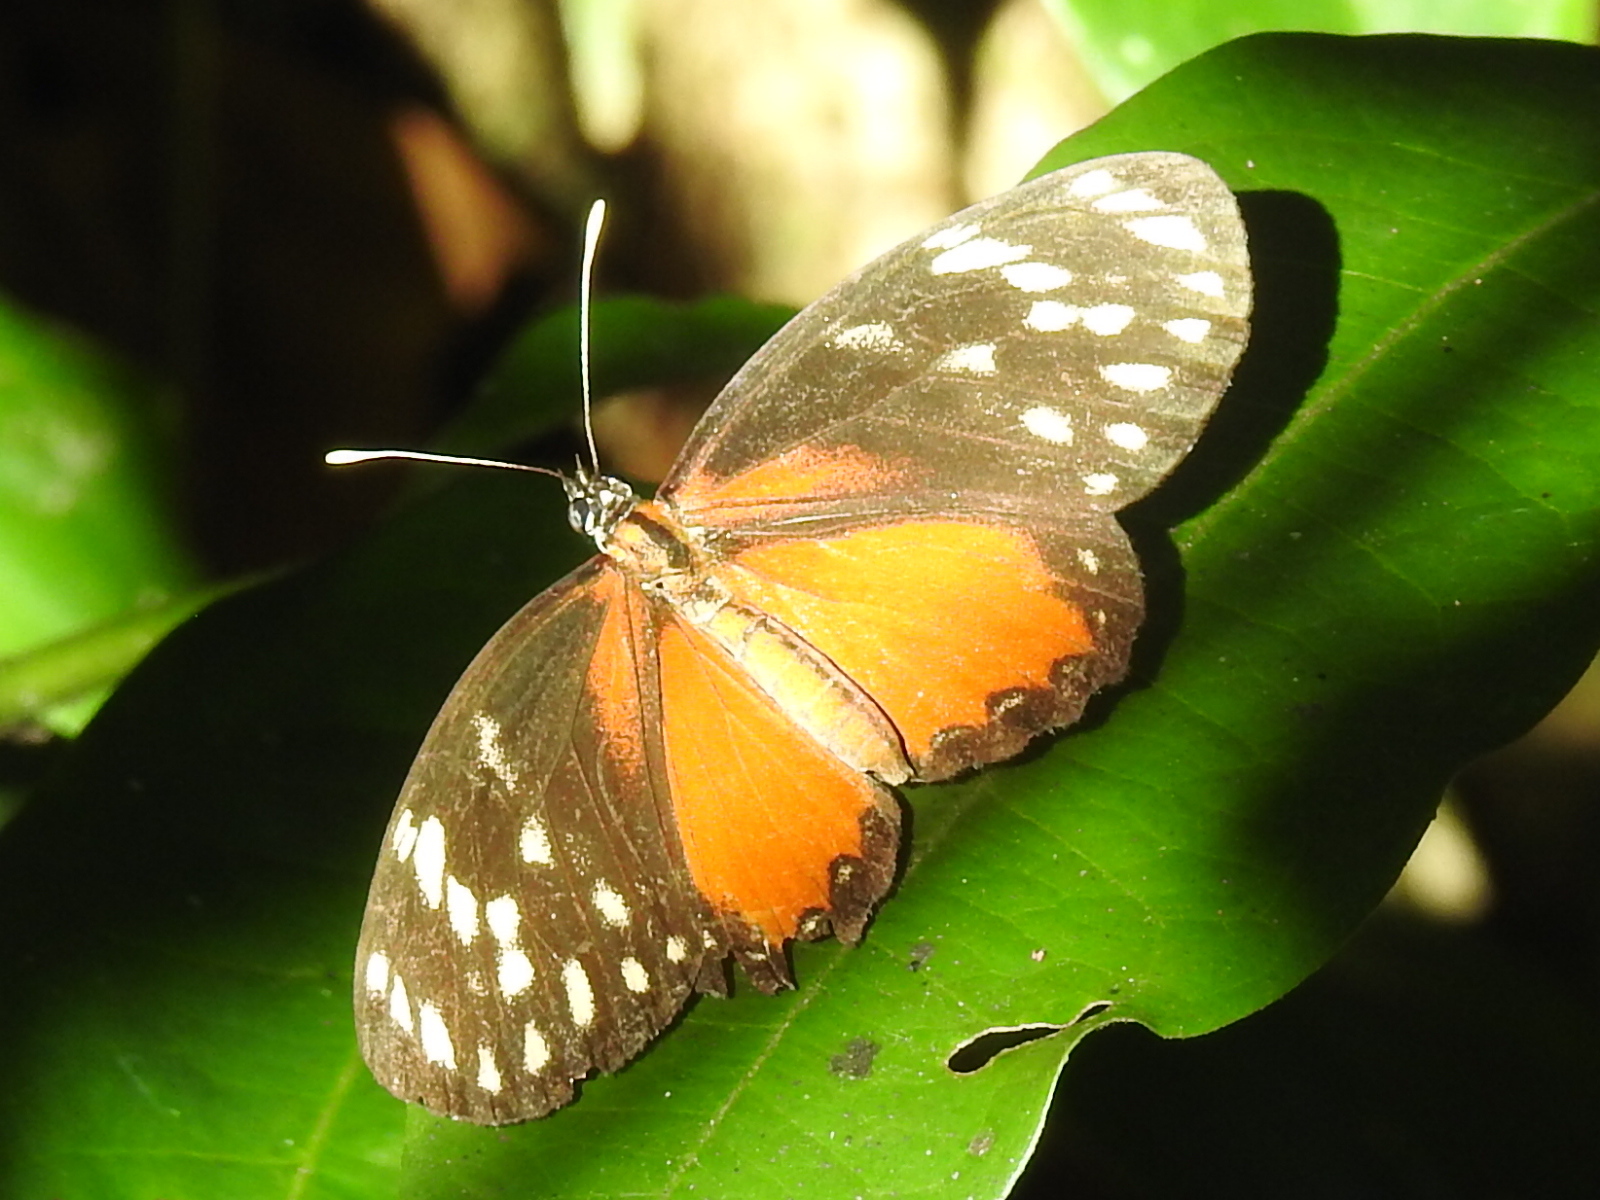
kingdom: Animalia
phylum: Arthropoda
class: Insecta
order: Lepidoptera
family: Nymphalidae
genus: Eresia
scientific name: Eresia sticta
